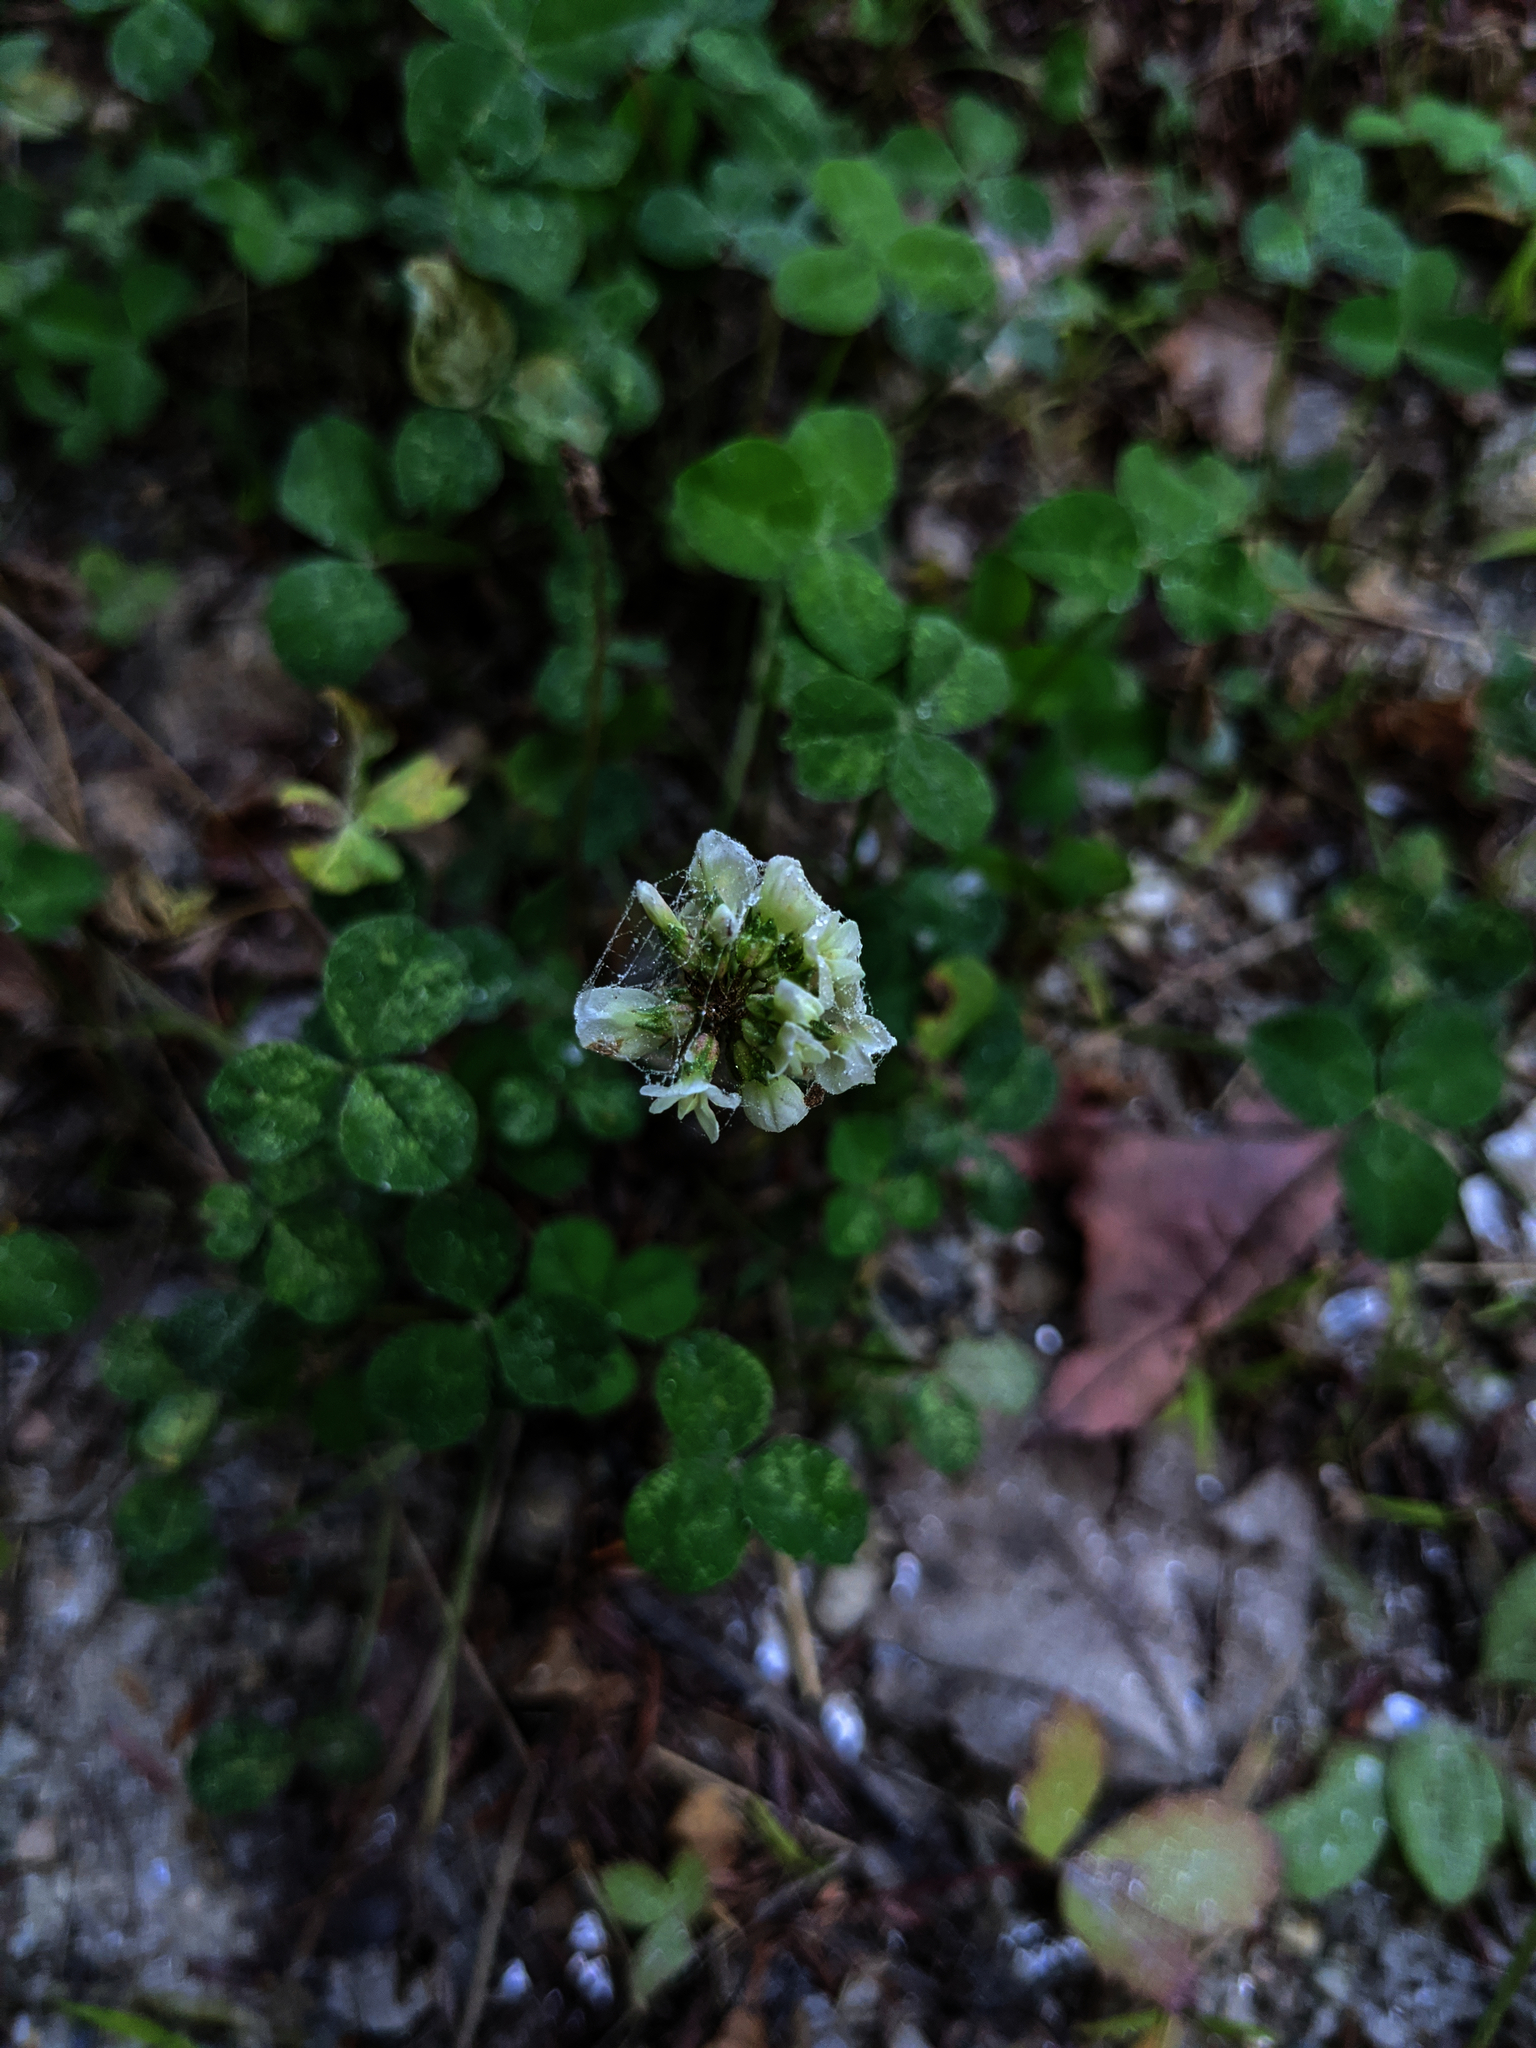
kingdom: Plantae
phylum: Tracheophyta
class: Magnoliopsida
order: Fabales
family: Fabaceae
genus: Trifolium
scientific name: Trifolium repens
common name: White clover
